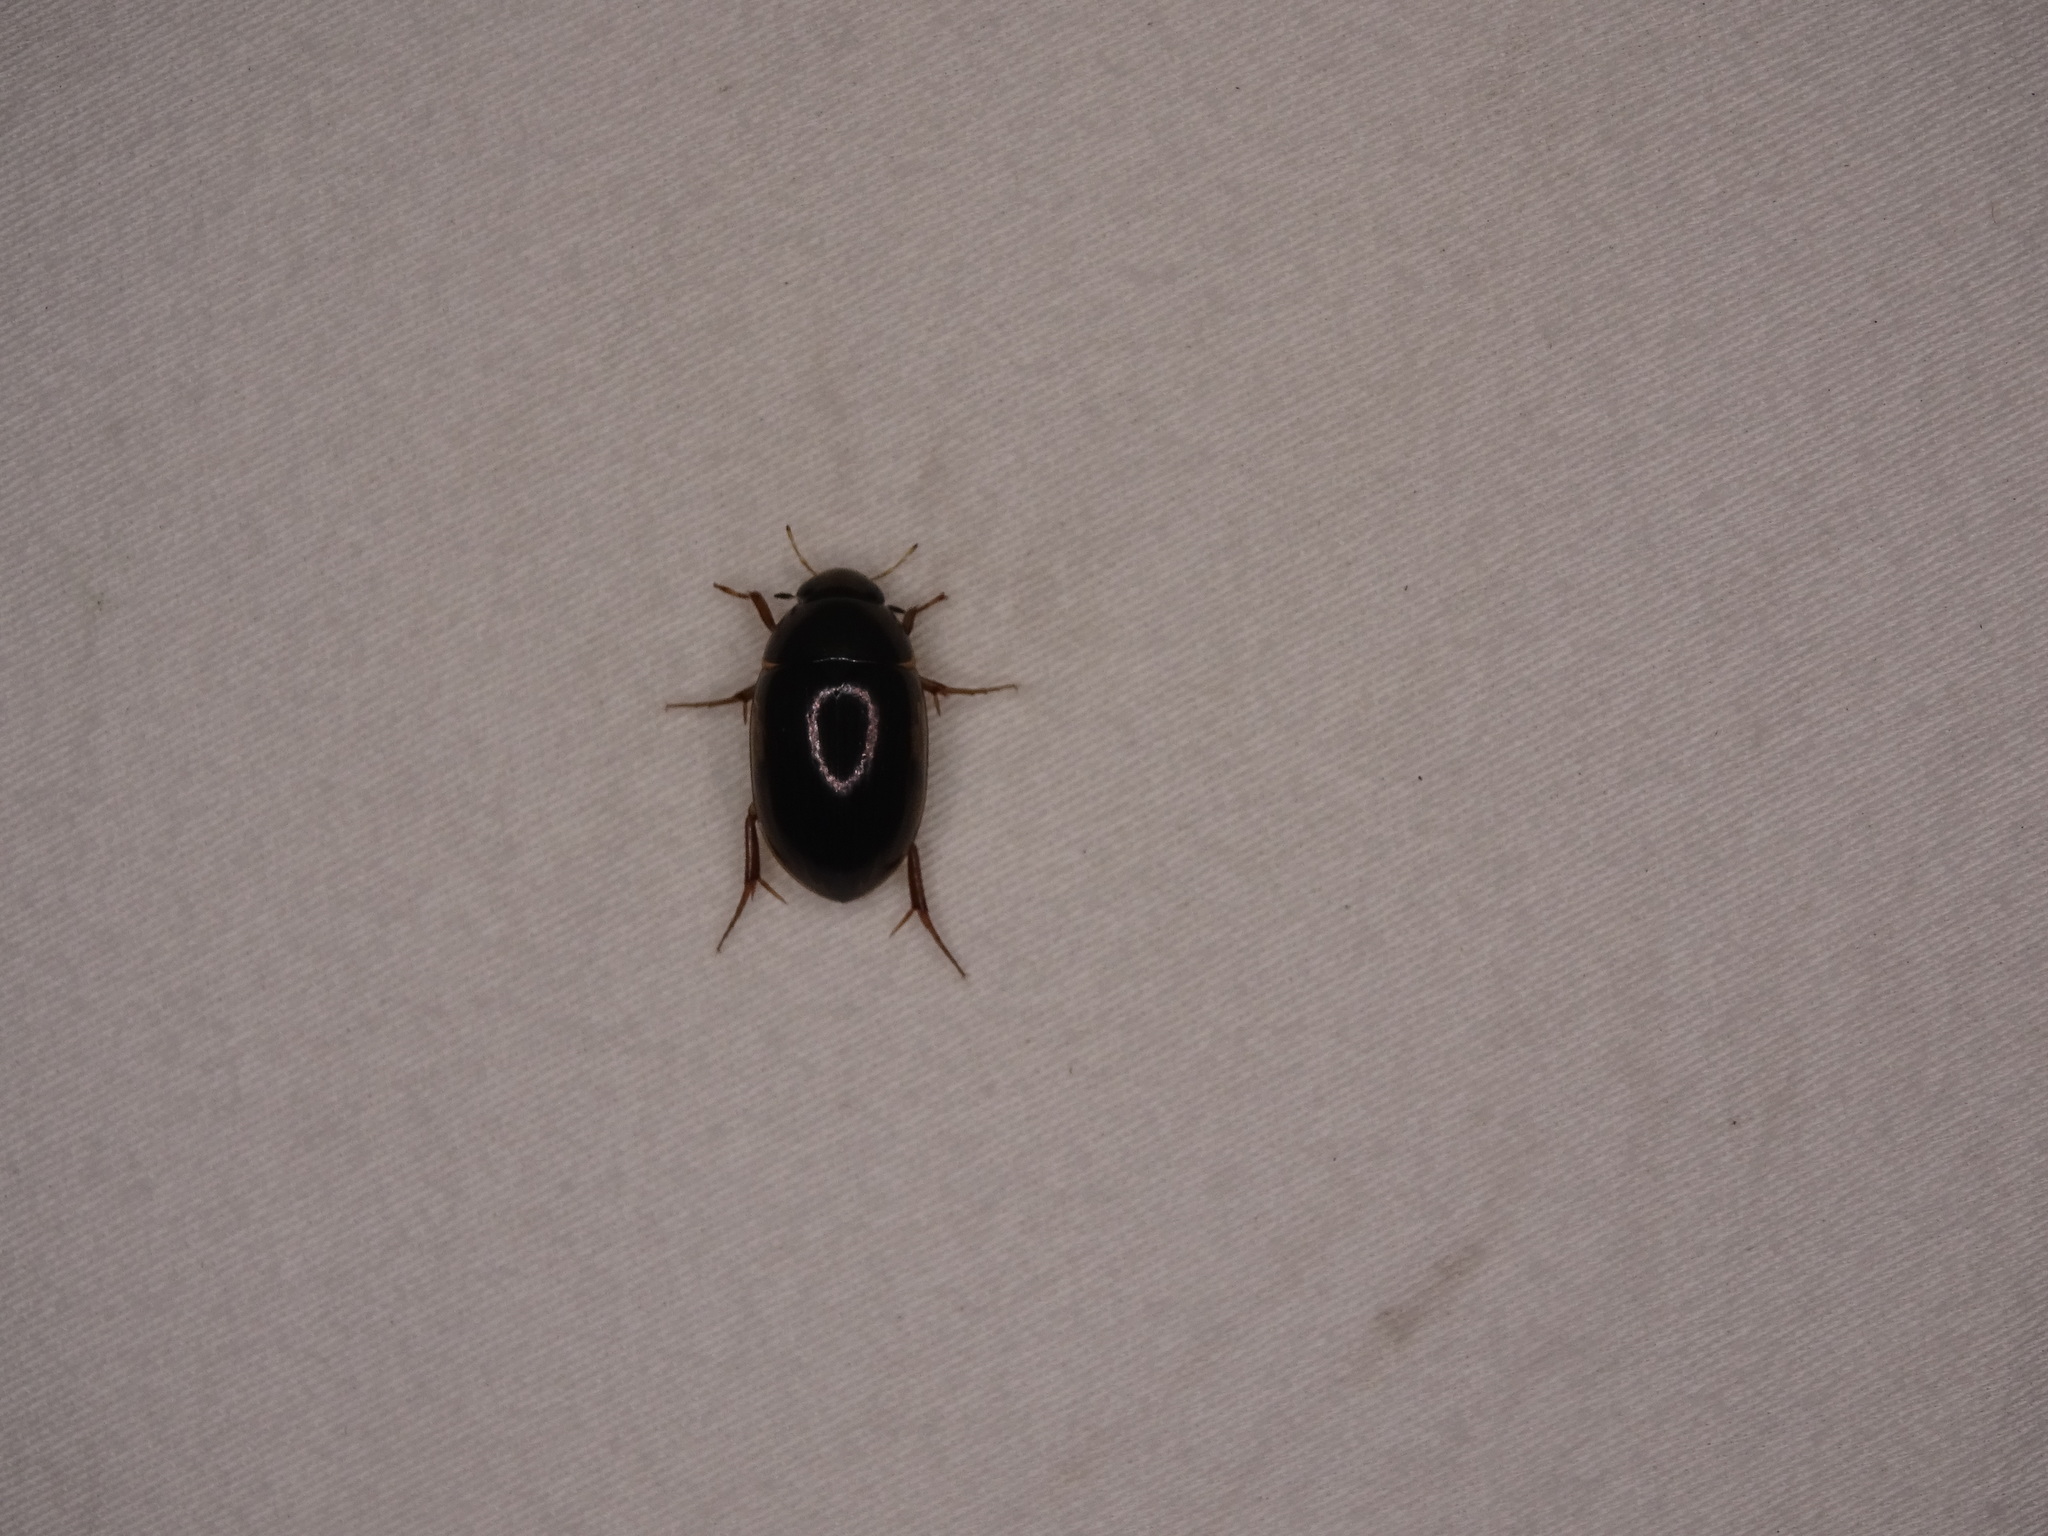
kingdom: Animalia
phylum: Arthropoda
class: Insecta
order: Coleoptera
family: Hydrophilidae
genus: Tropisternus
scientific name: Tropisternus collaris
